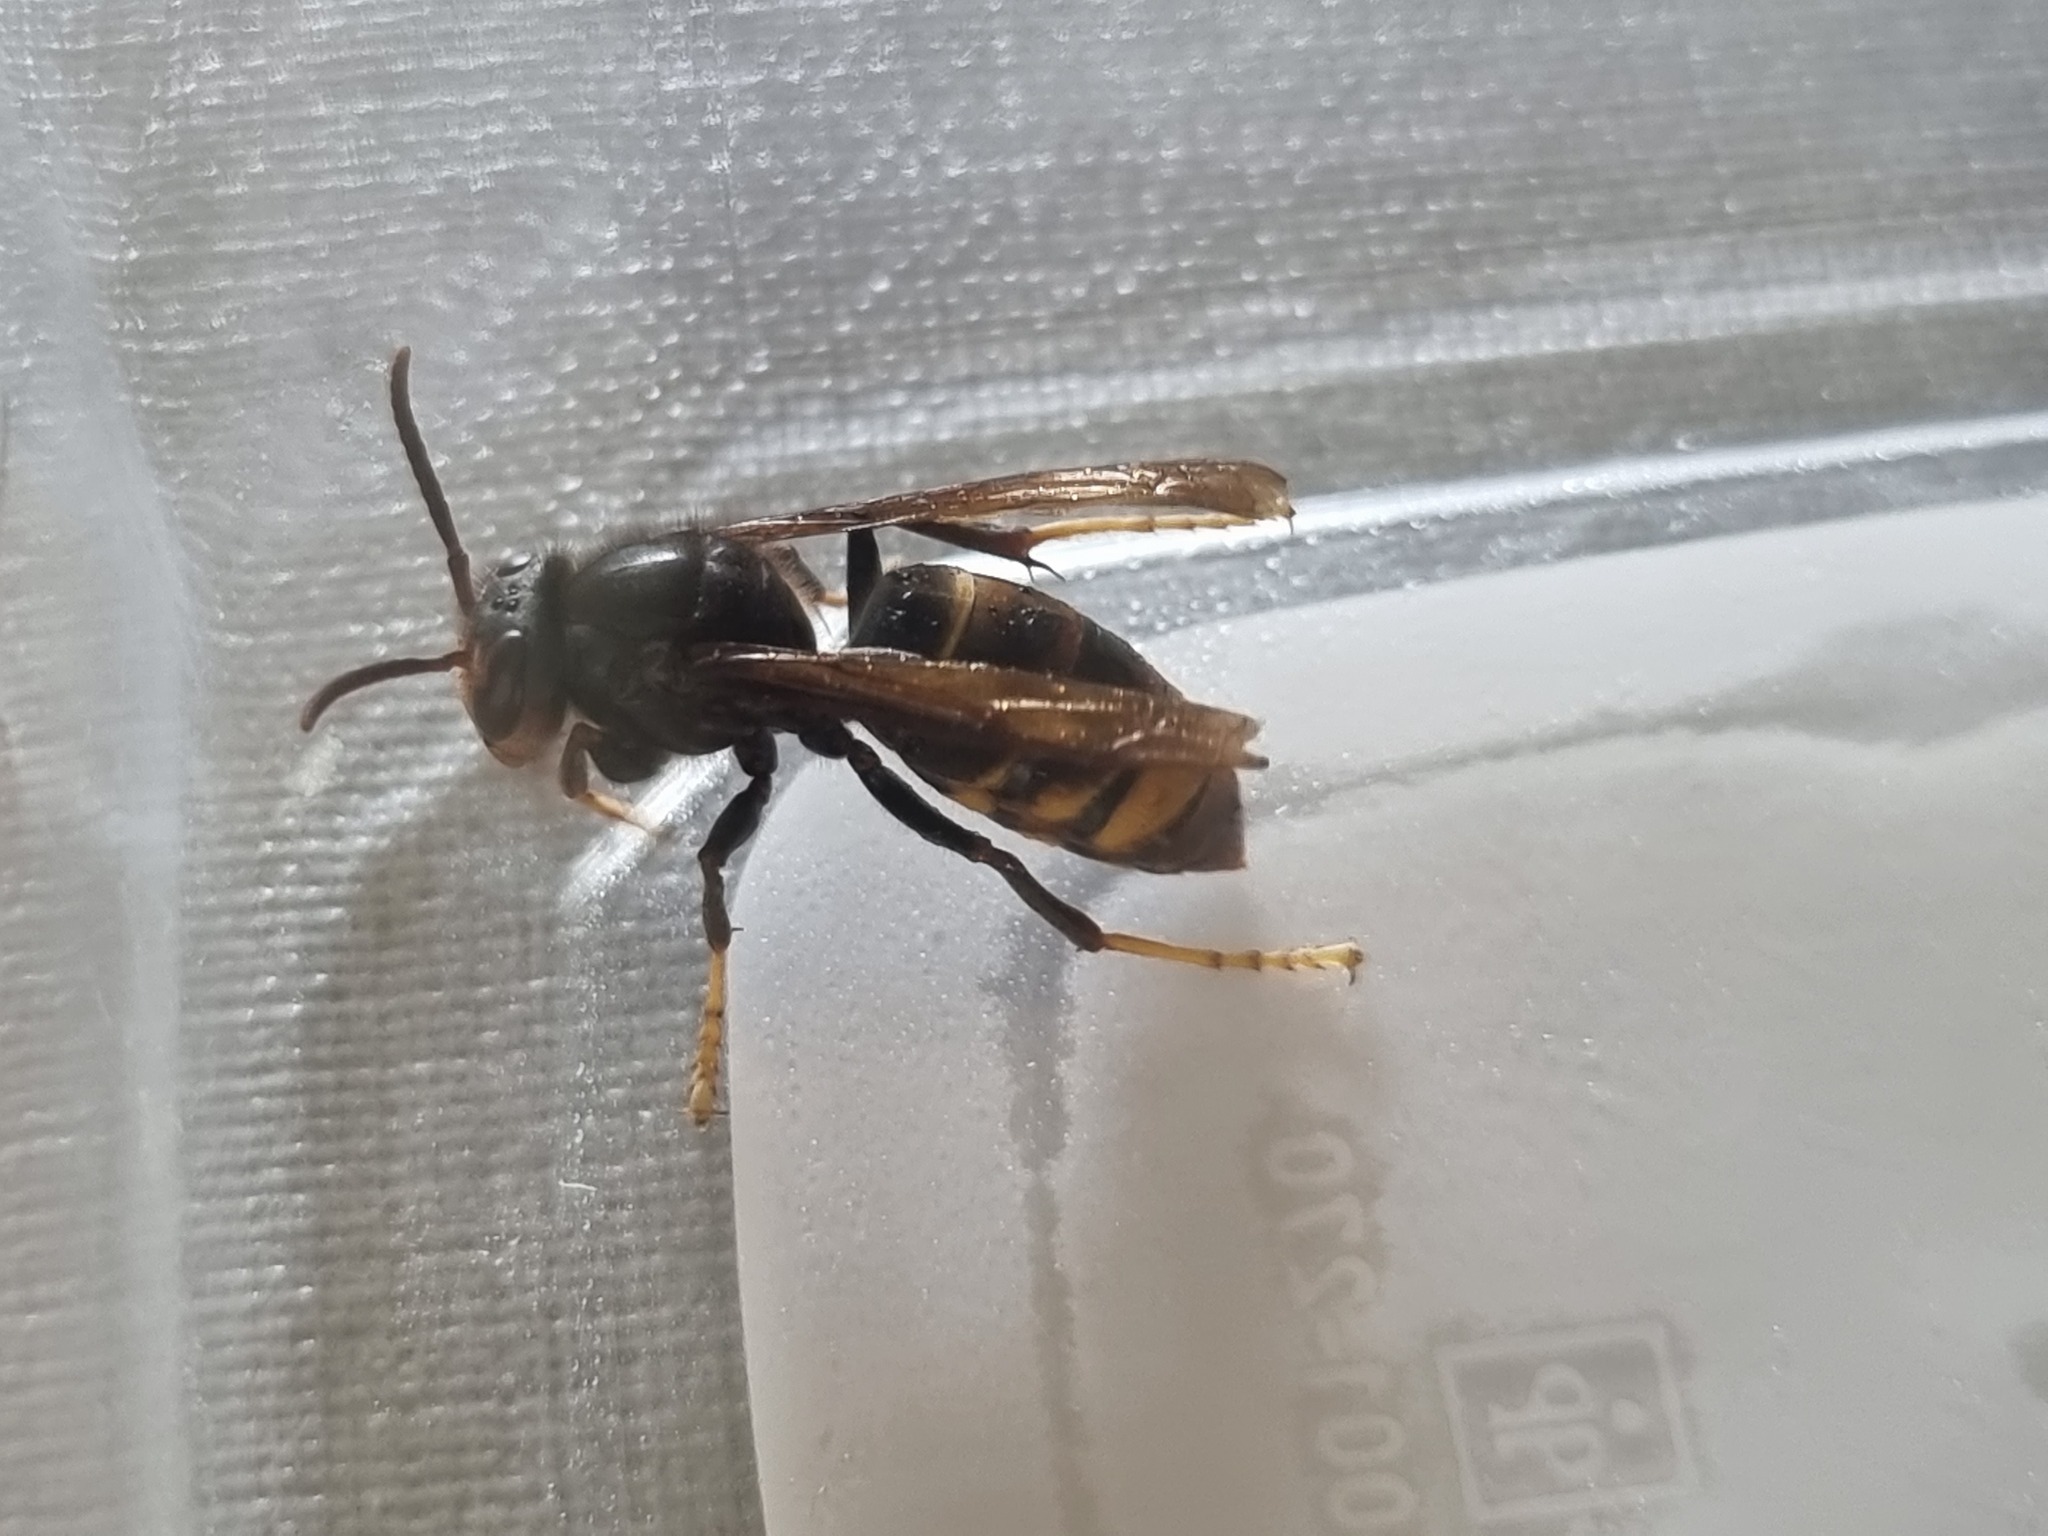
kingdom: Animalia
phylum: Arthropoda
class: Insecta
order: Hymenoptera
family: Vespidae
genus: Vespa
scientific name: Vespa velutina
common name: Asian hornet
